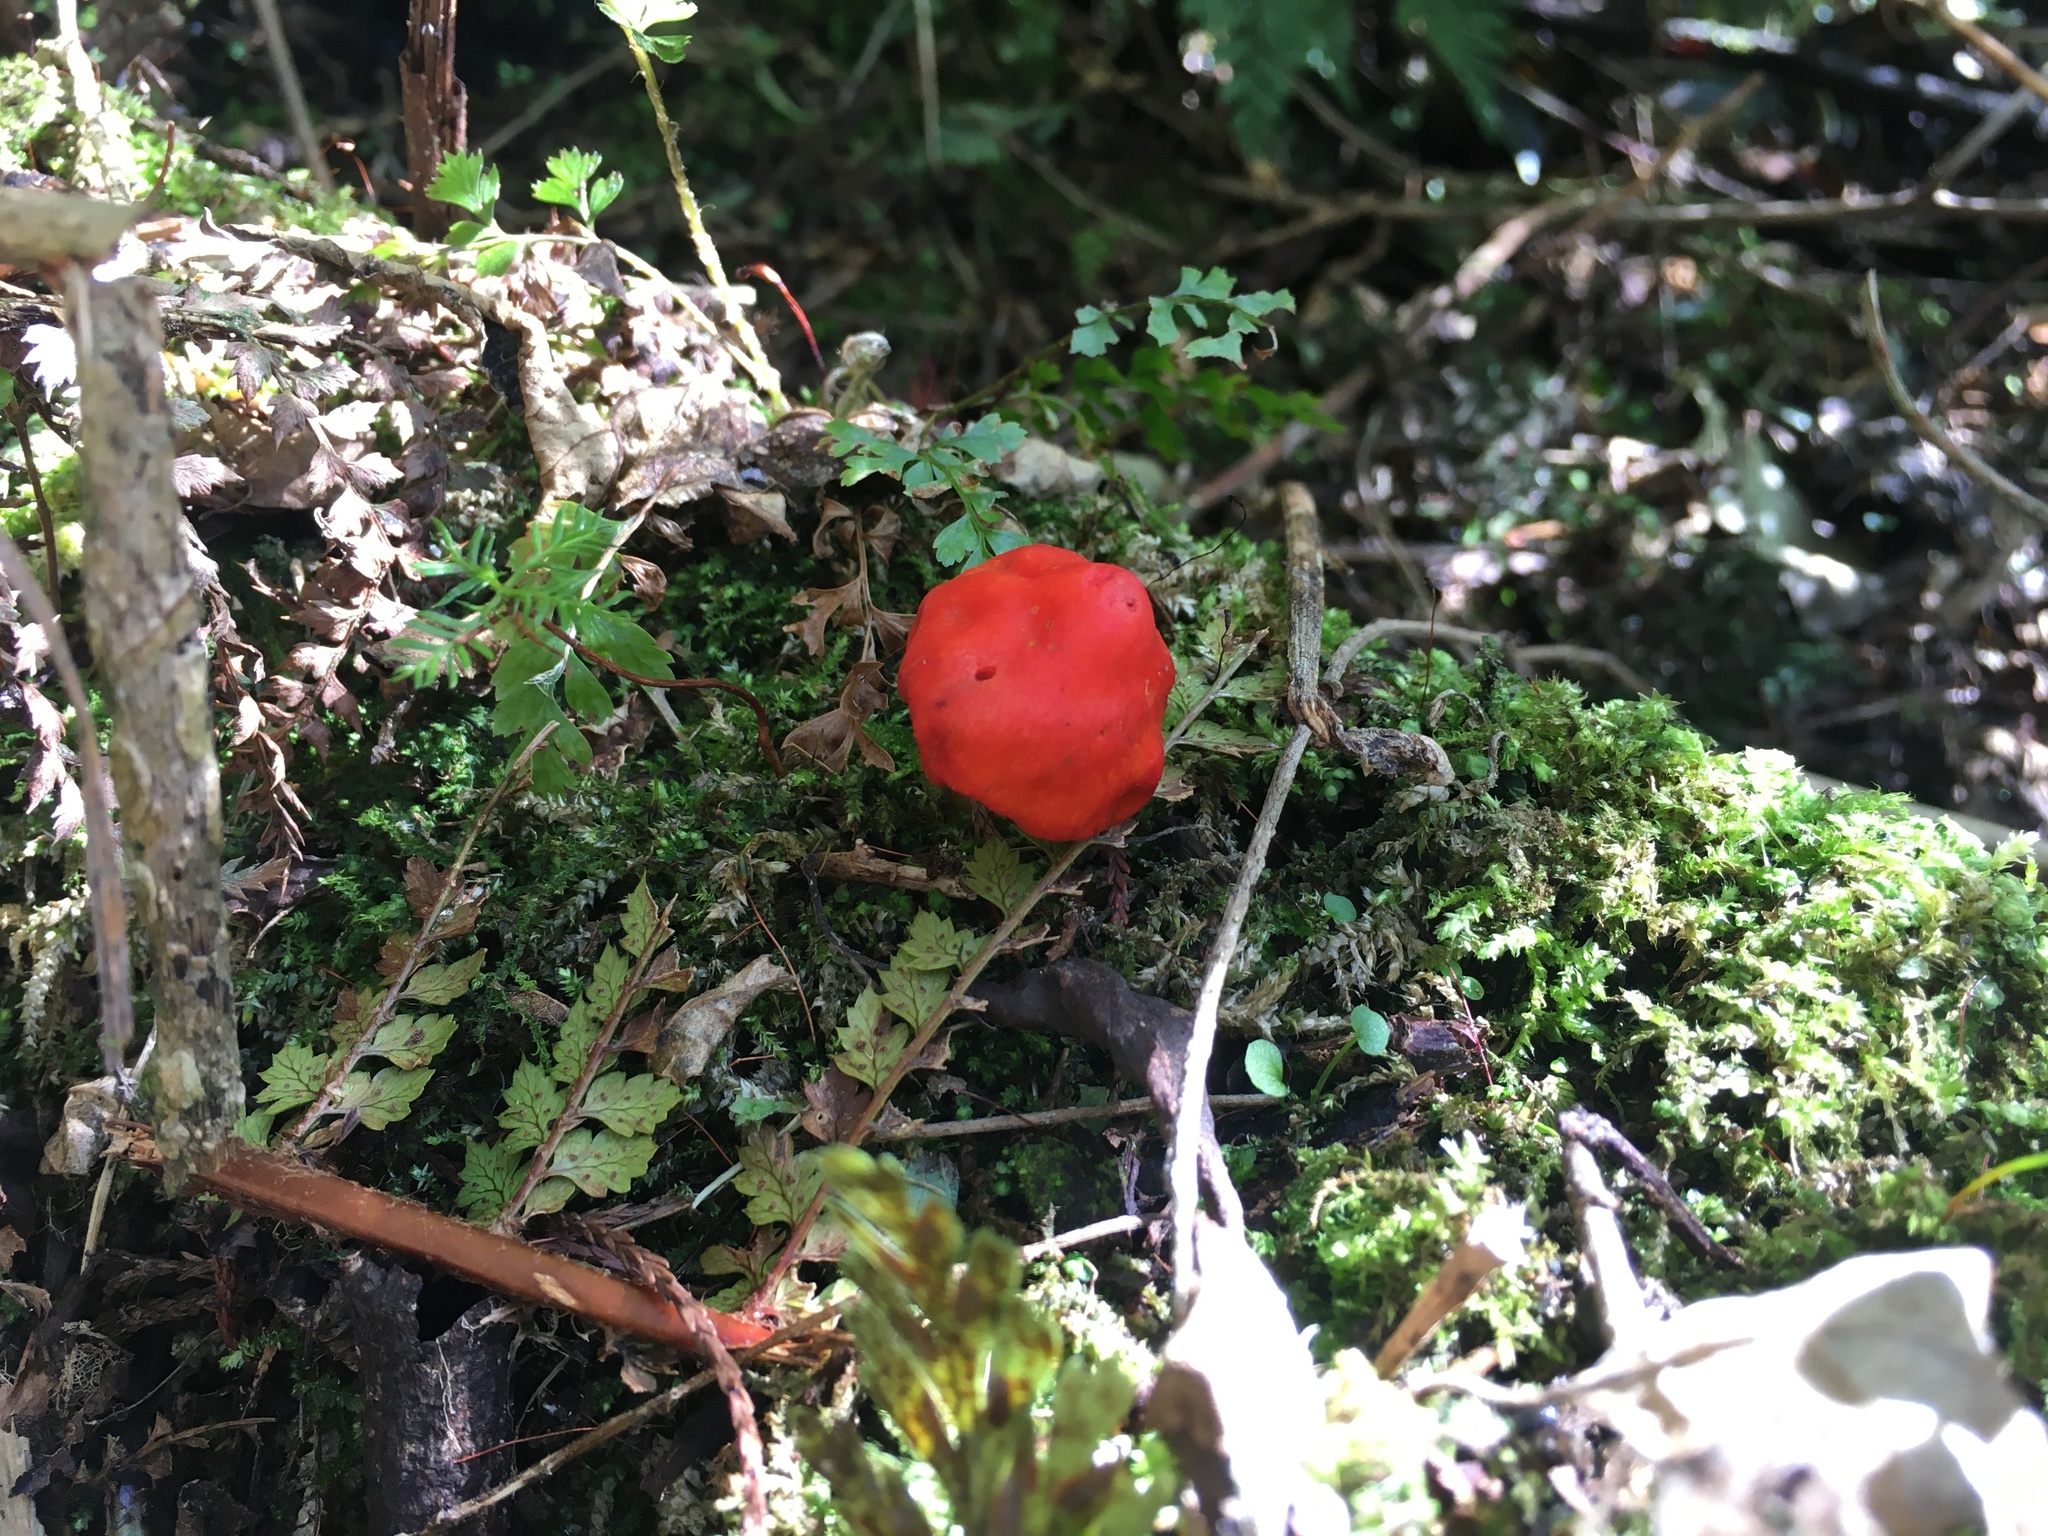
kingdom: Fungi
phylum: Basidiomycota
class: Agaricomycetes
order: Agaricales
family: Strophariaceae
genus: Leratiomyces
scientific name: Leratiomyces erythrocephalus
